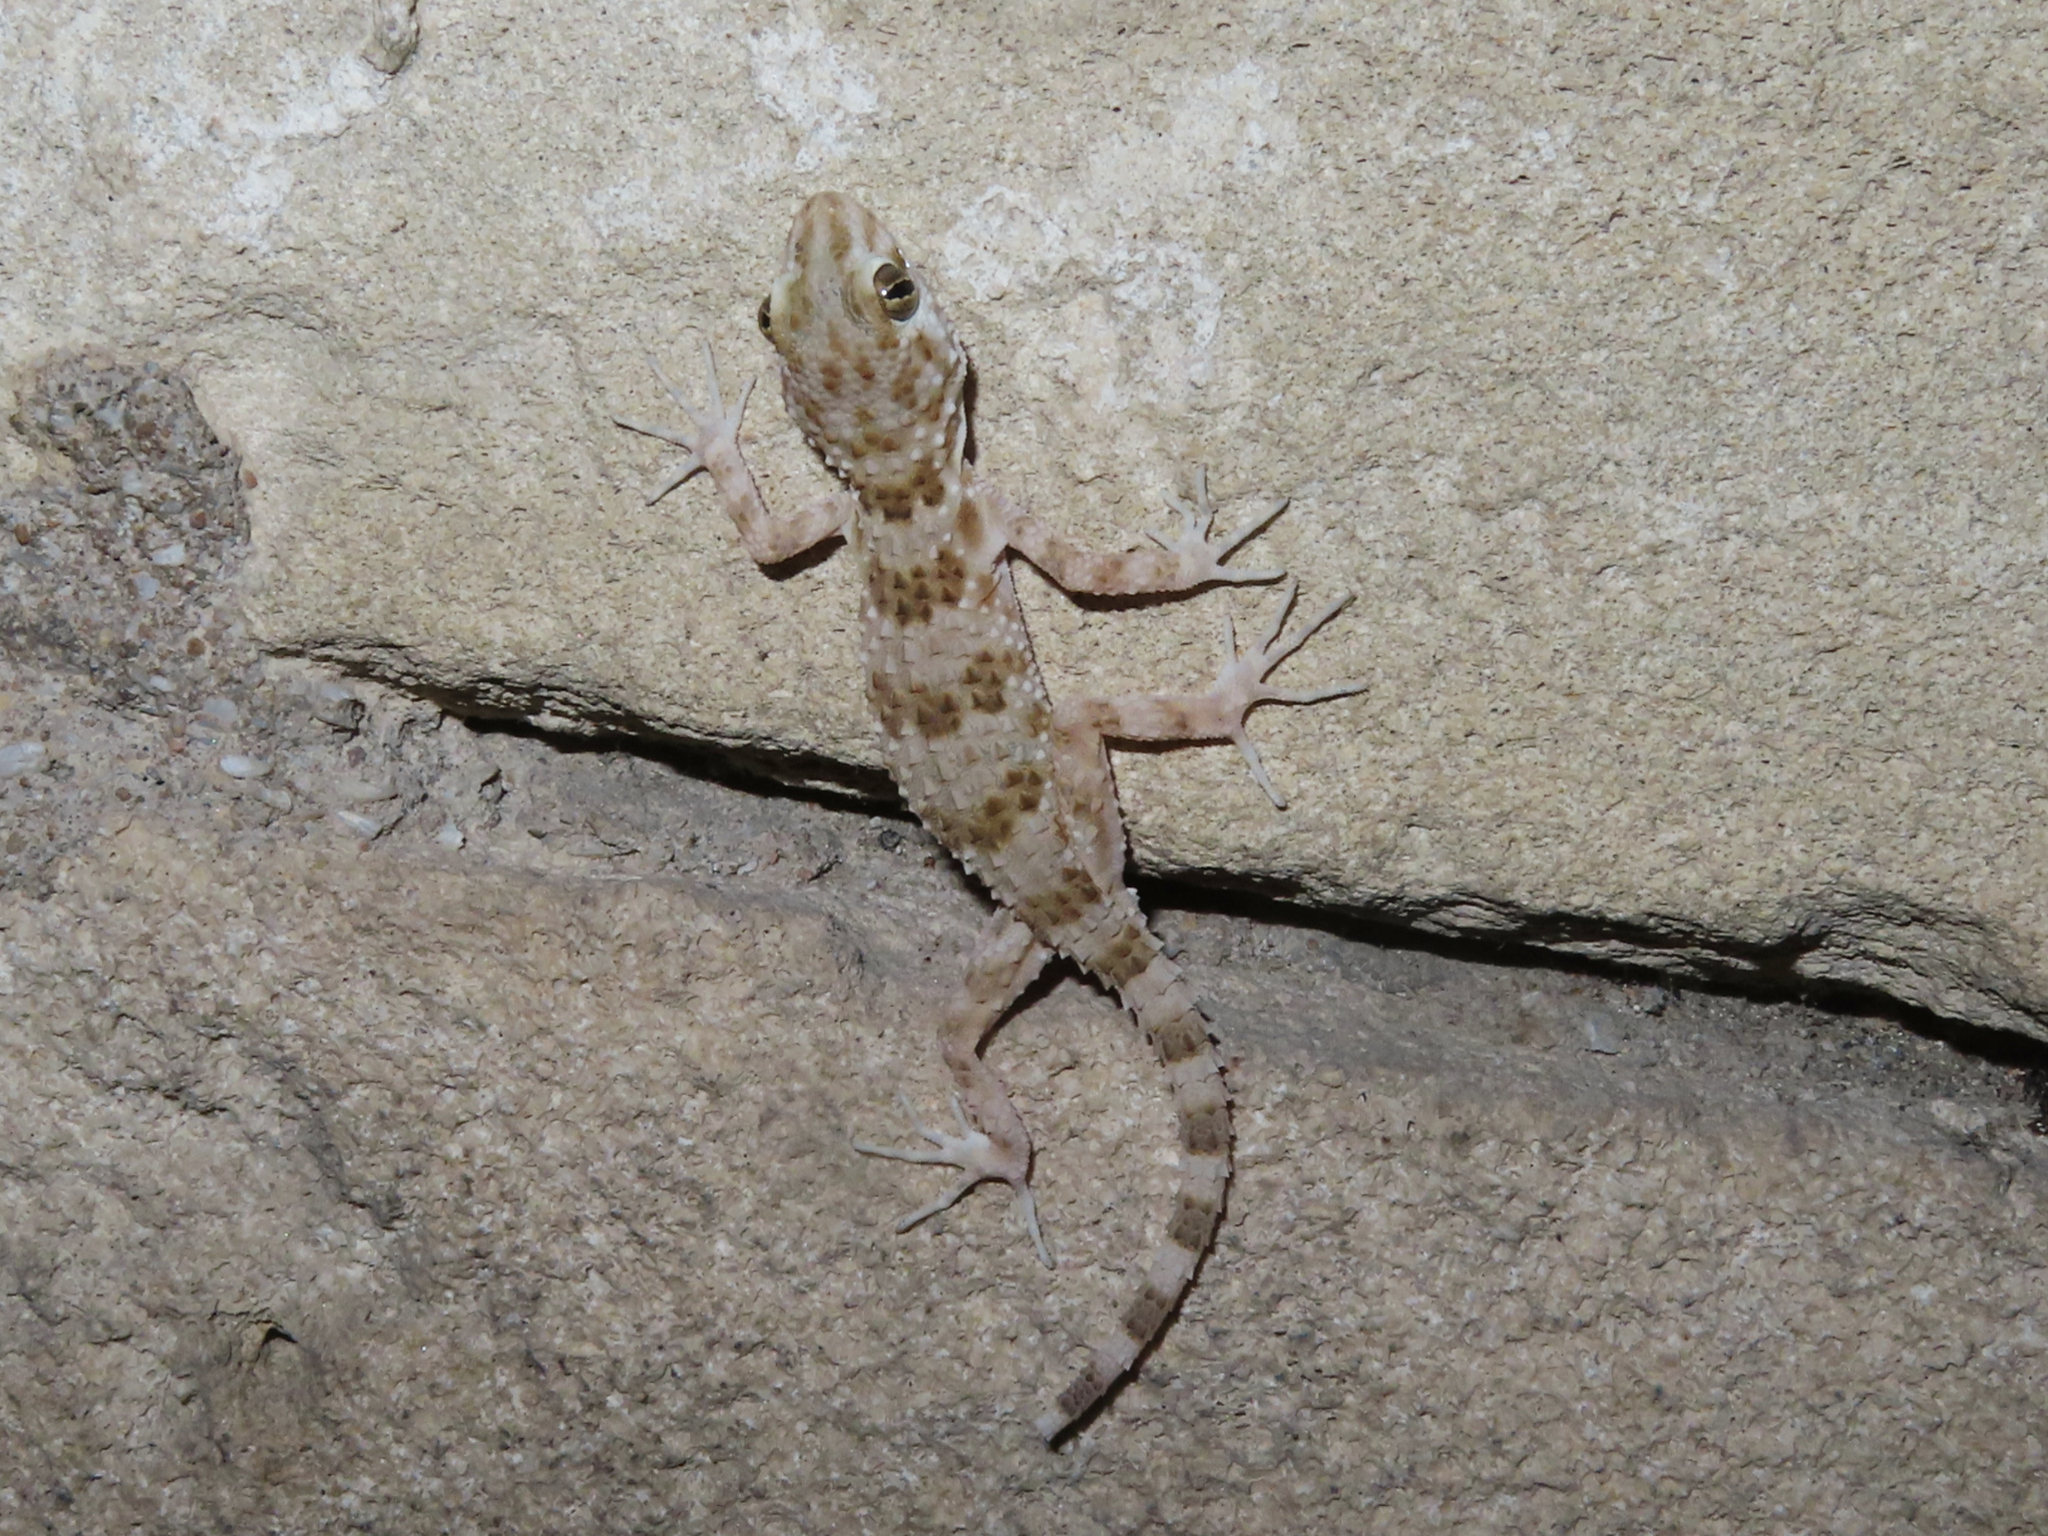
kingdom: Animalia
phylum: Chordata
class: Squamata
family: Gekkonidae
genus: Tenuidactylus
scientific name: Tenuidactylus caspius
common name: Caspian bent-toed gecko
